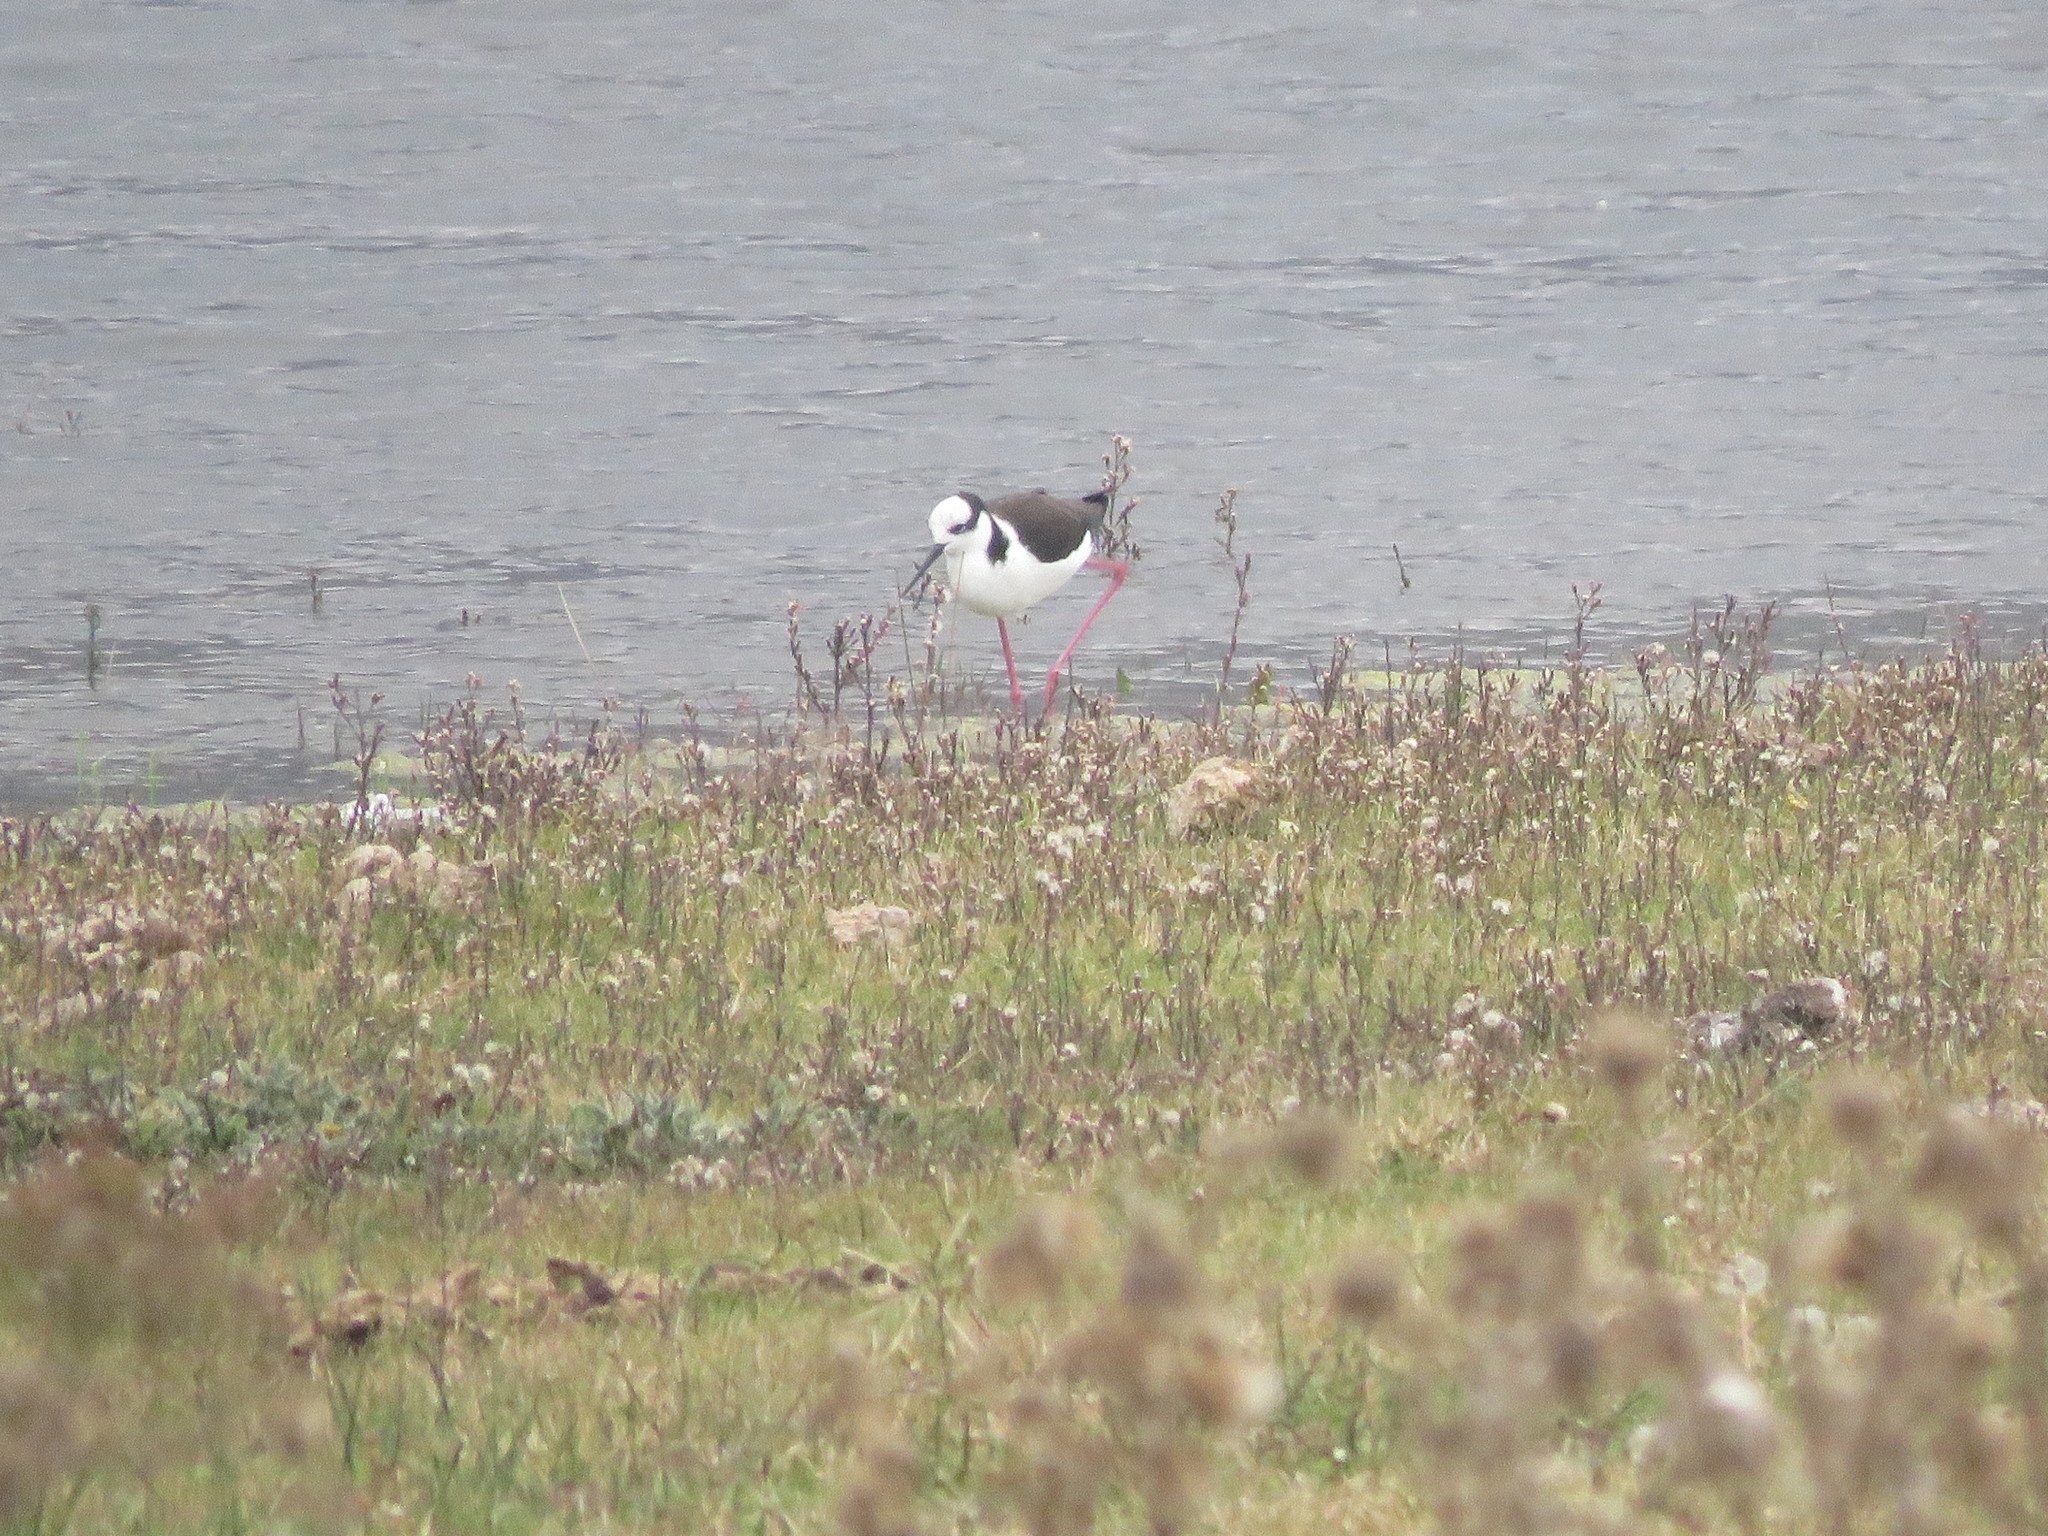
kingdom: Animalia
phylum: Chordata
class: Aves
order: Charadriiformes
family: Recurvirostridae
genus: Himantopus
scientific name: Himantopus mexicanus
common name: Black-necked stilt
